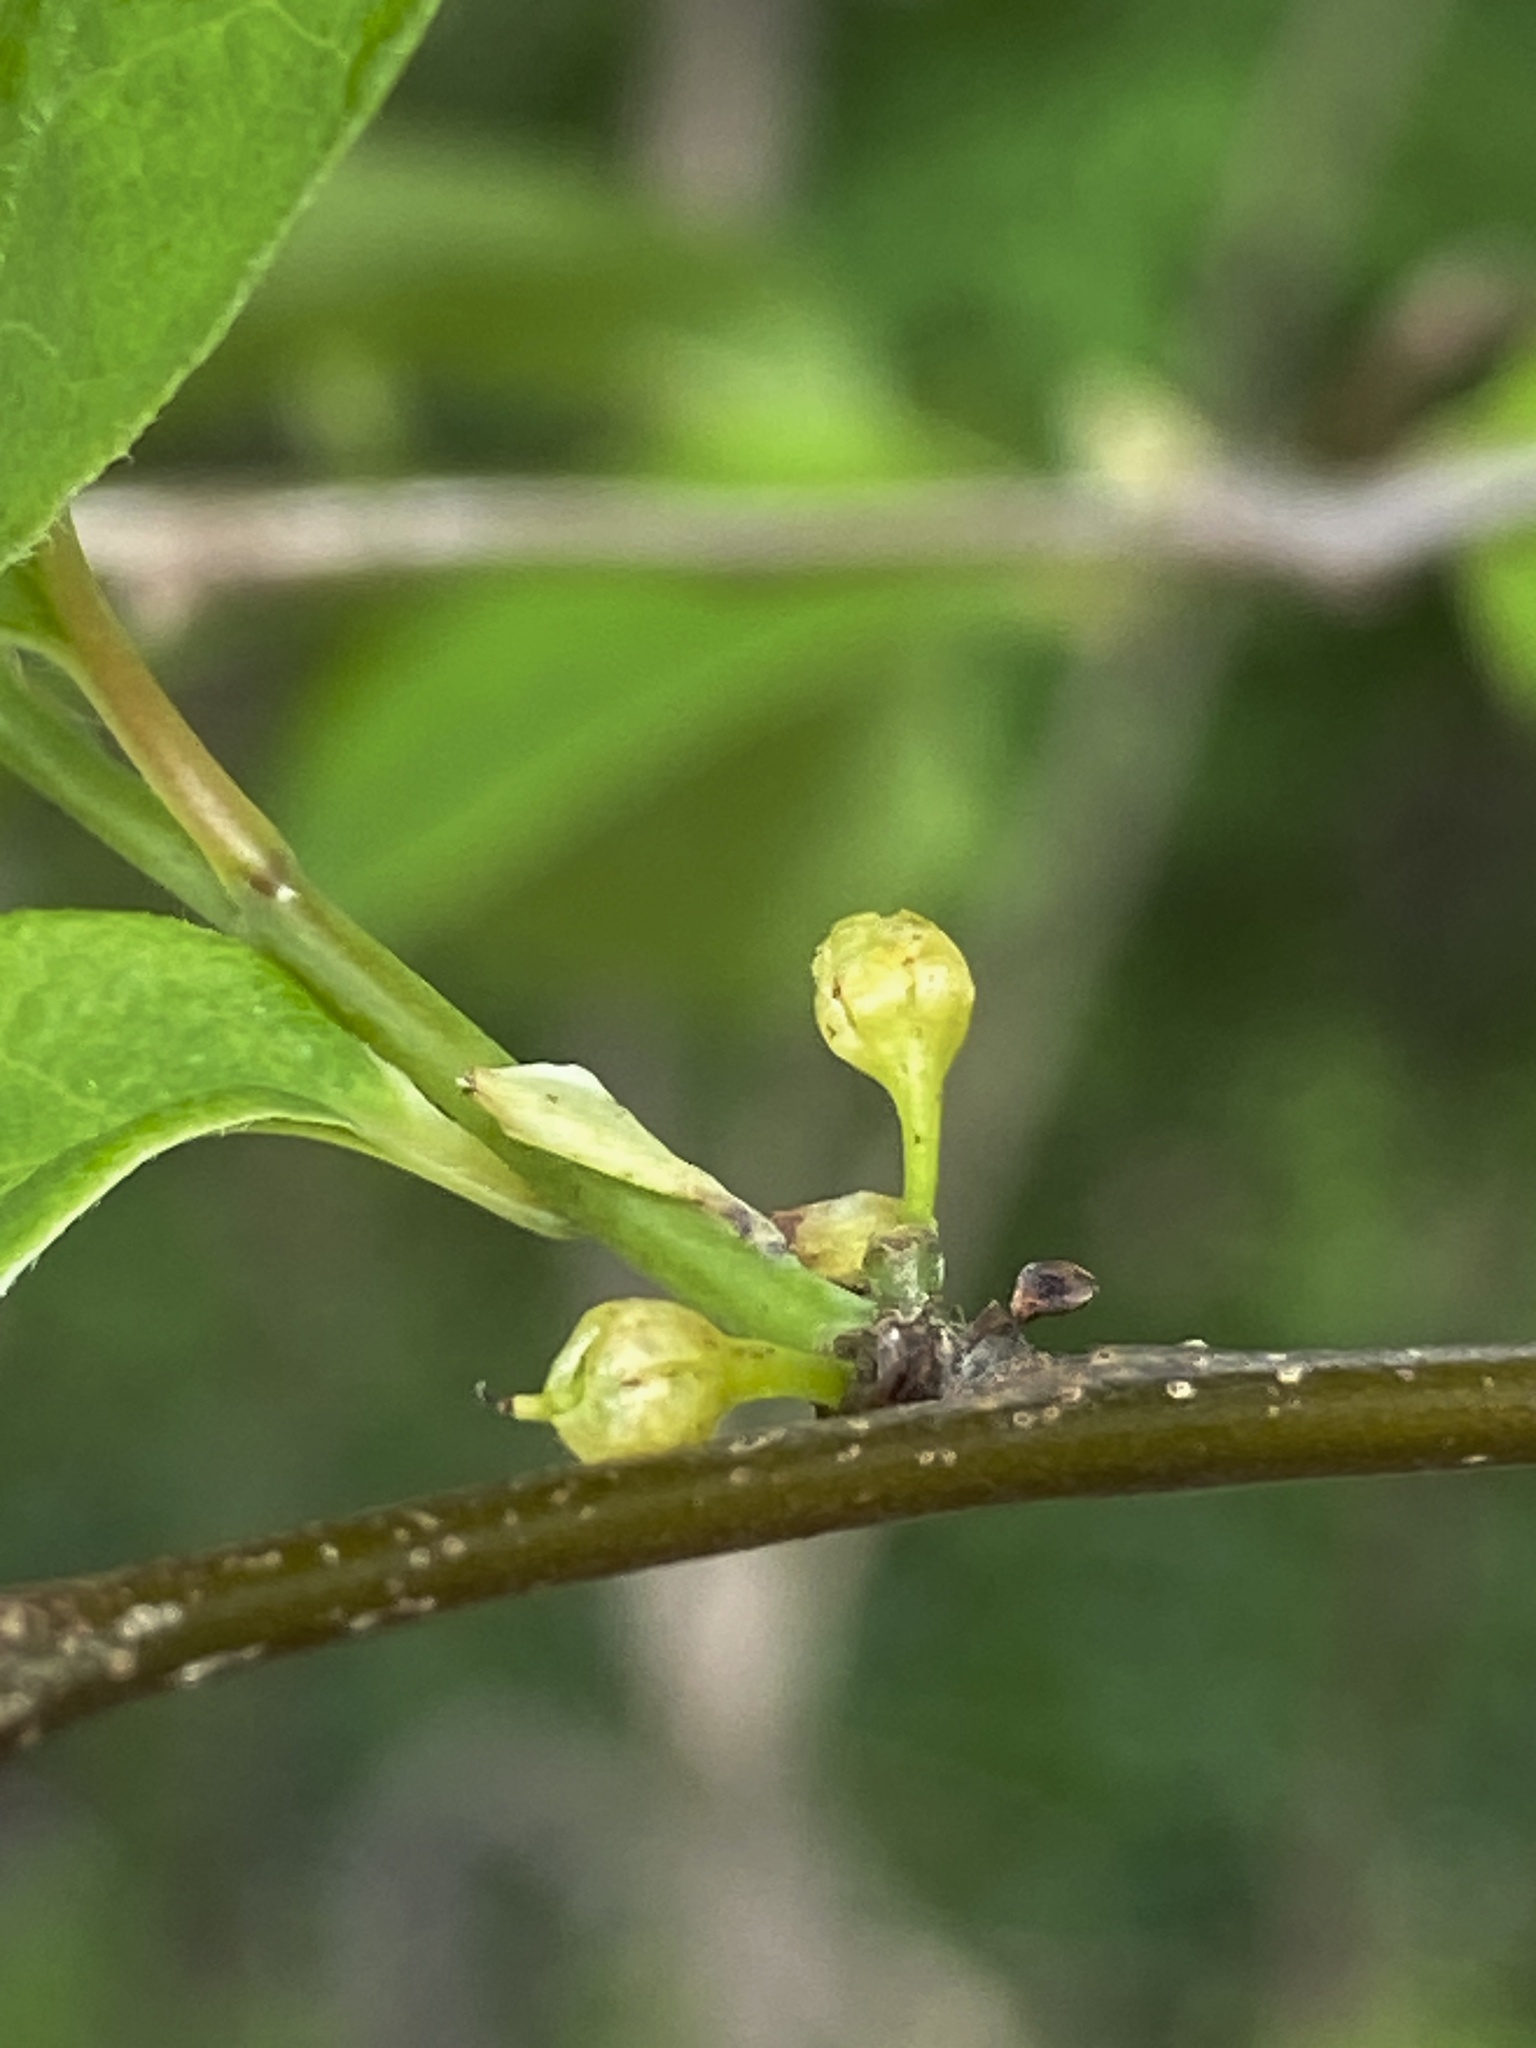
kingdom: Plantae
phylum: Tracheophyta
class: Magnoliopsida
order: Laurales
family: Lauraceae
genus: Lindera
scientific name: Lindera benzoin
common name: Spicebush
